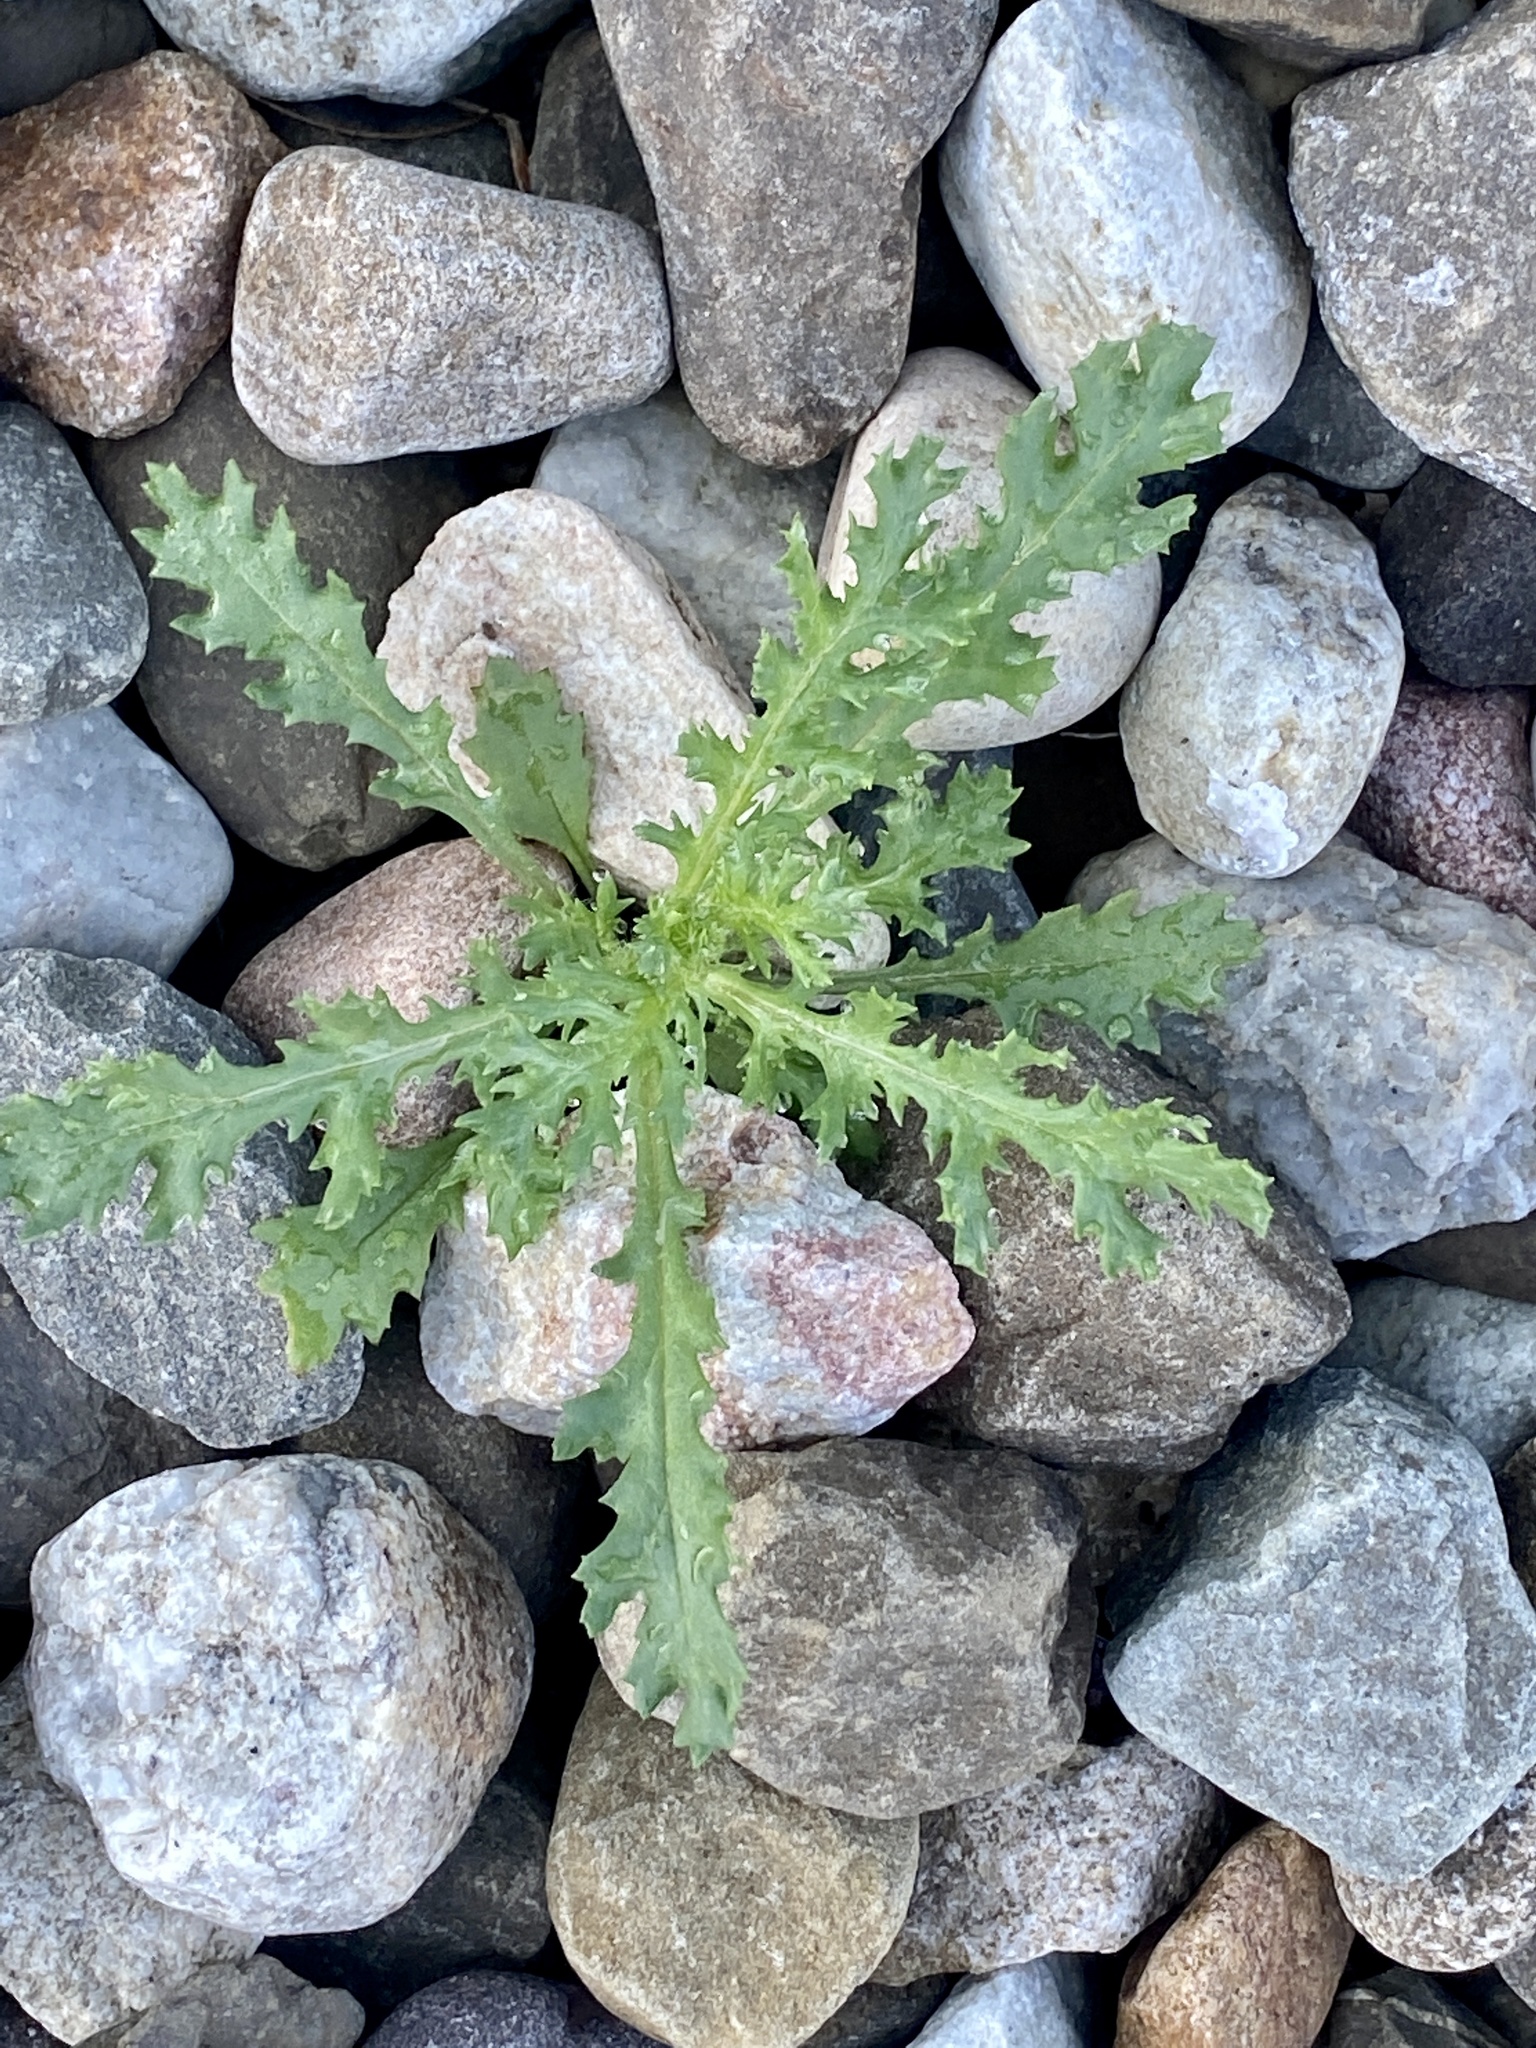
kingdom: Plantae
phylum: Tracheophyta
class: Magnoliopsida
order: Asterales
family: Asteraceae
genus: Senecio
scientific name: Senecio vulgaris
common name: Old-man-in-the-spring
